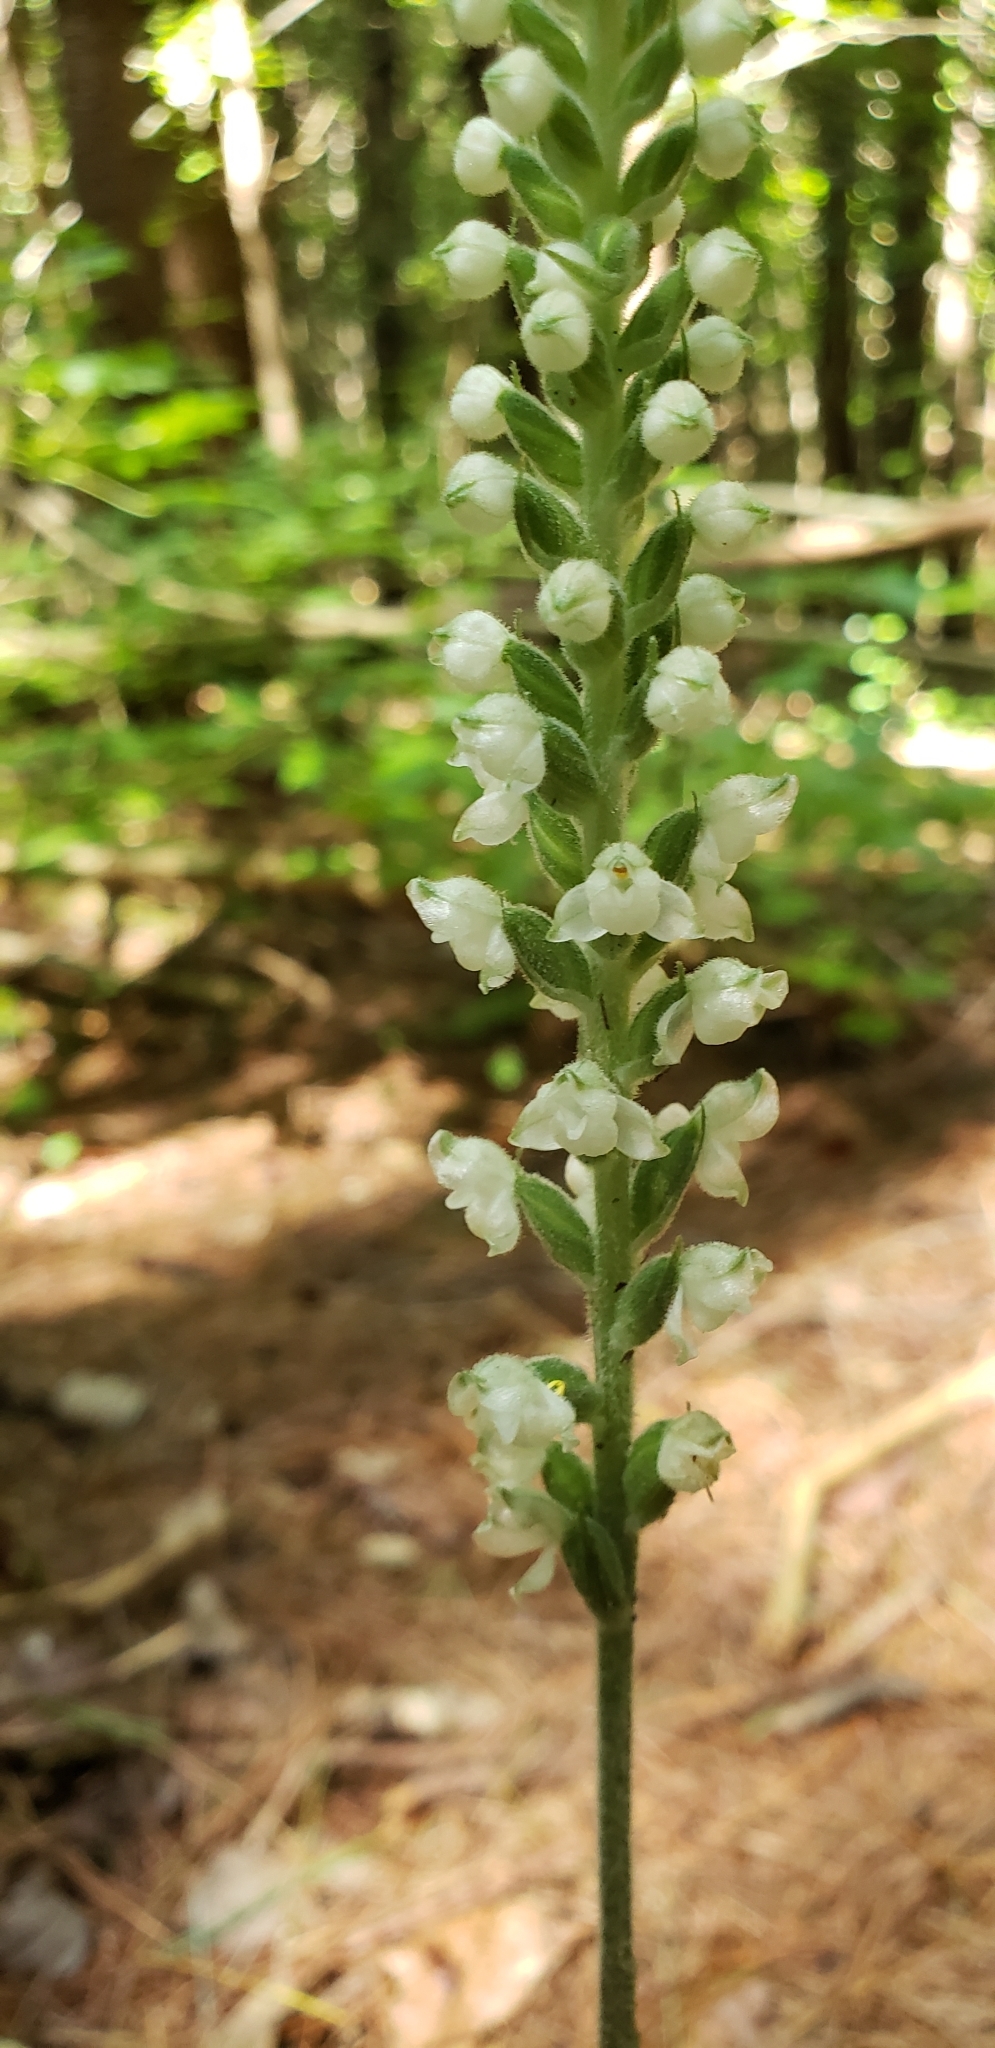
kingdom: Plantae
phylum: Tracheophyta
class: Liliopsida
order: Asparagales
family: Orchidaceae
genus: Goodyera
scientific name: Goodyera pubescens
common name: Downy rattlesnake-plantain
